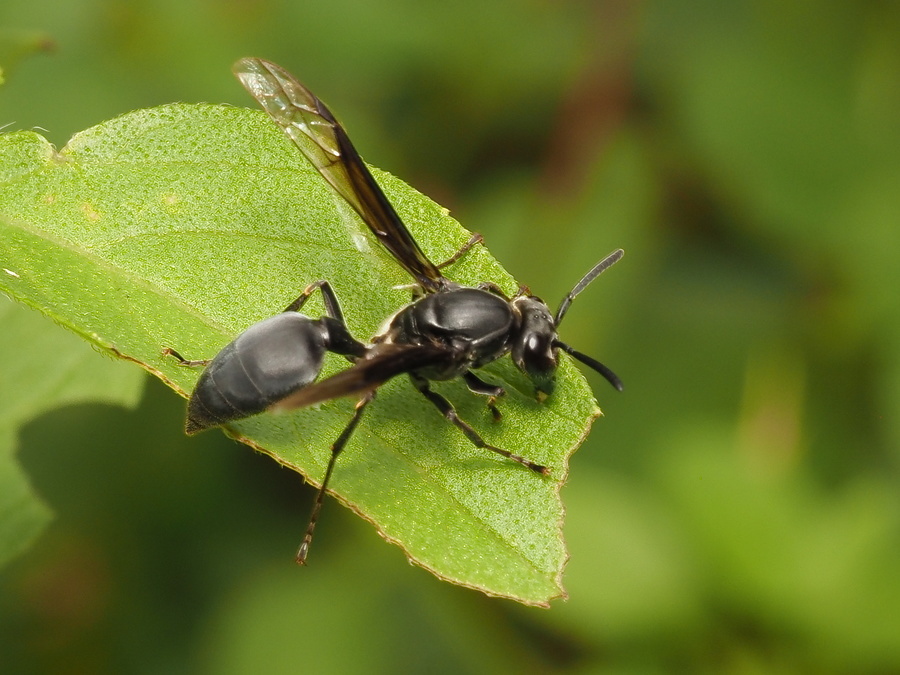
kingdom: Animalia
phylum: Arthropoda
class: Insecta
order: Hymenoptera
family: Eumenidae
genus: Polybia
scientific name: Polybia ignobilis
